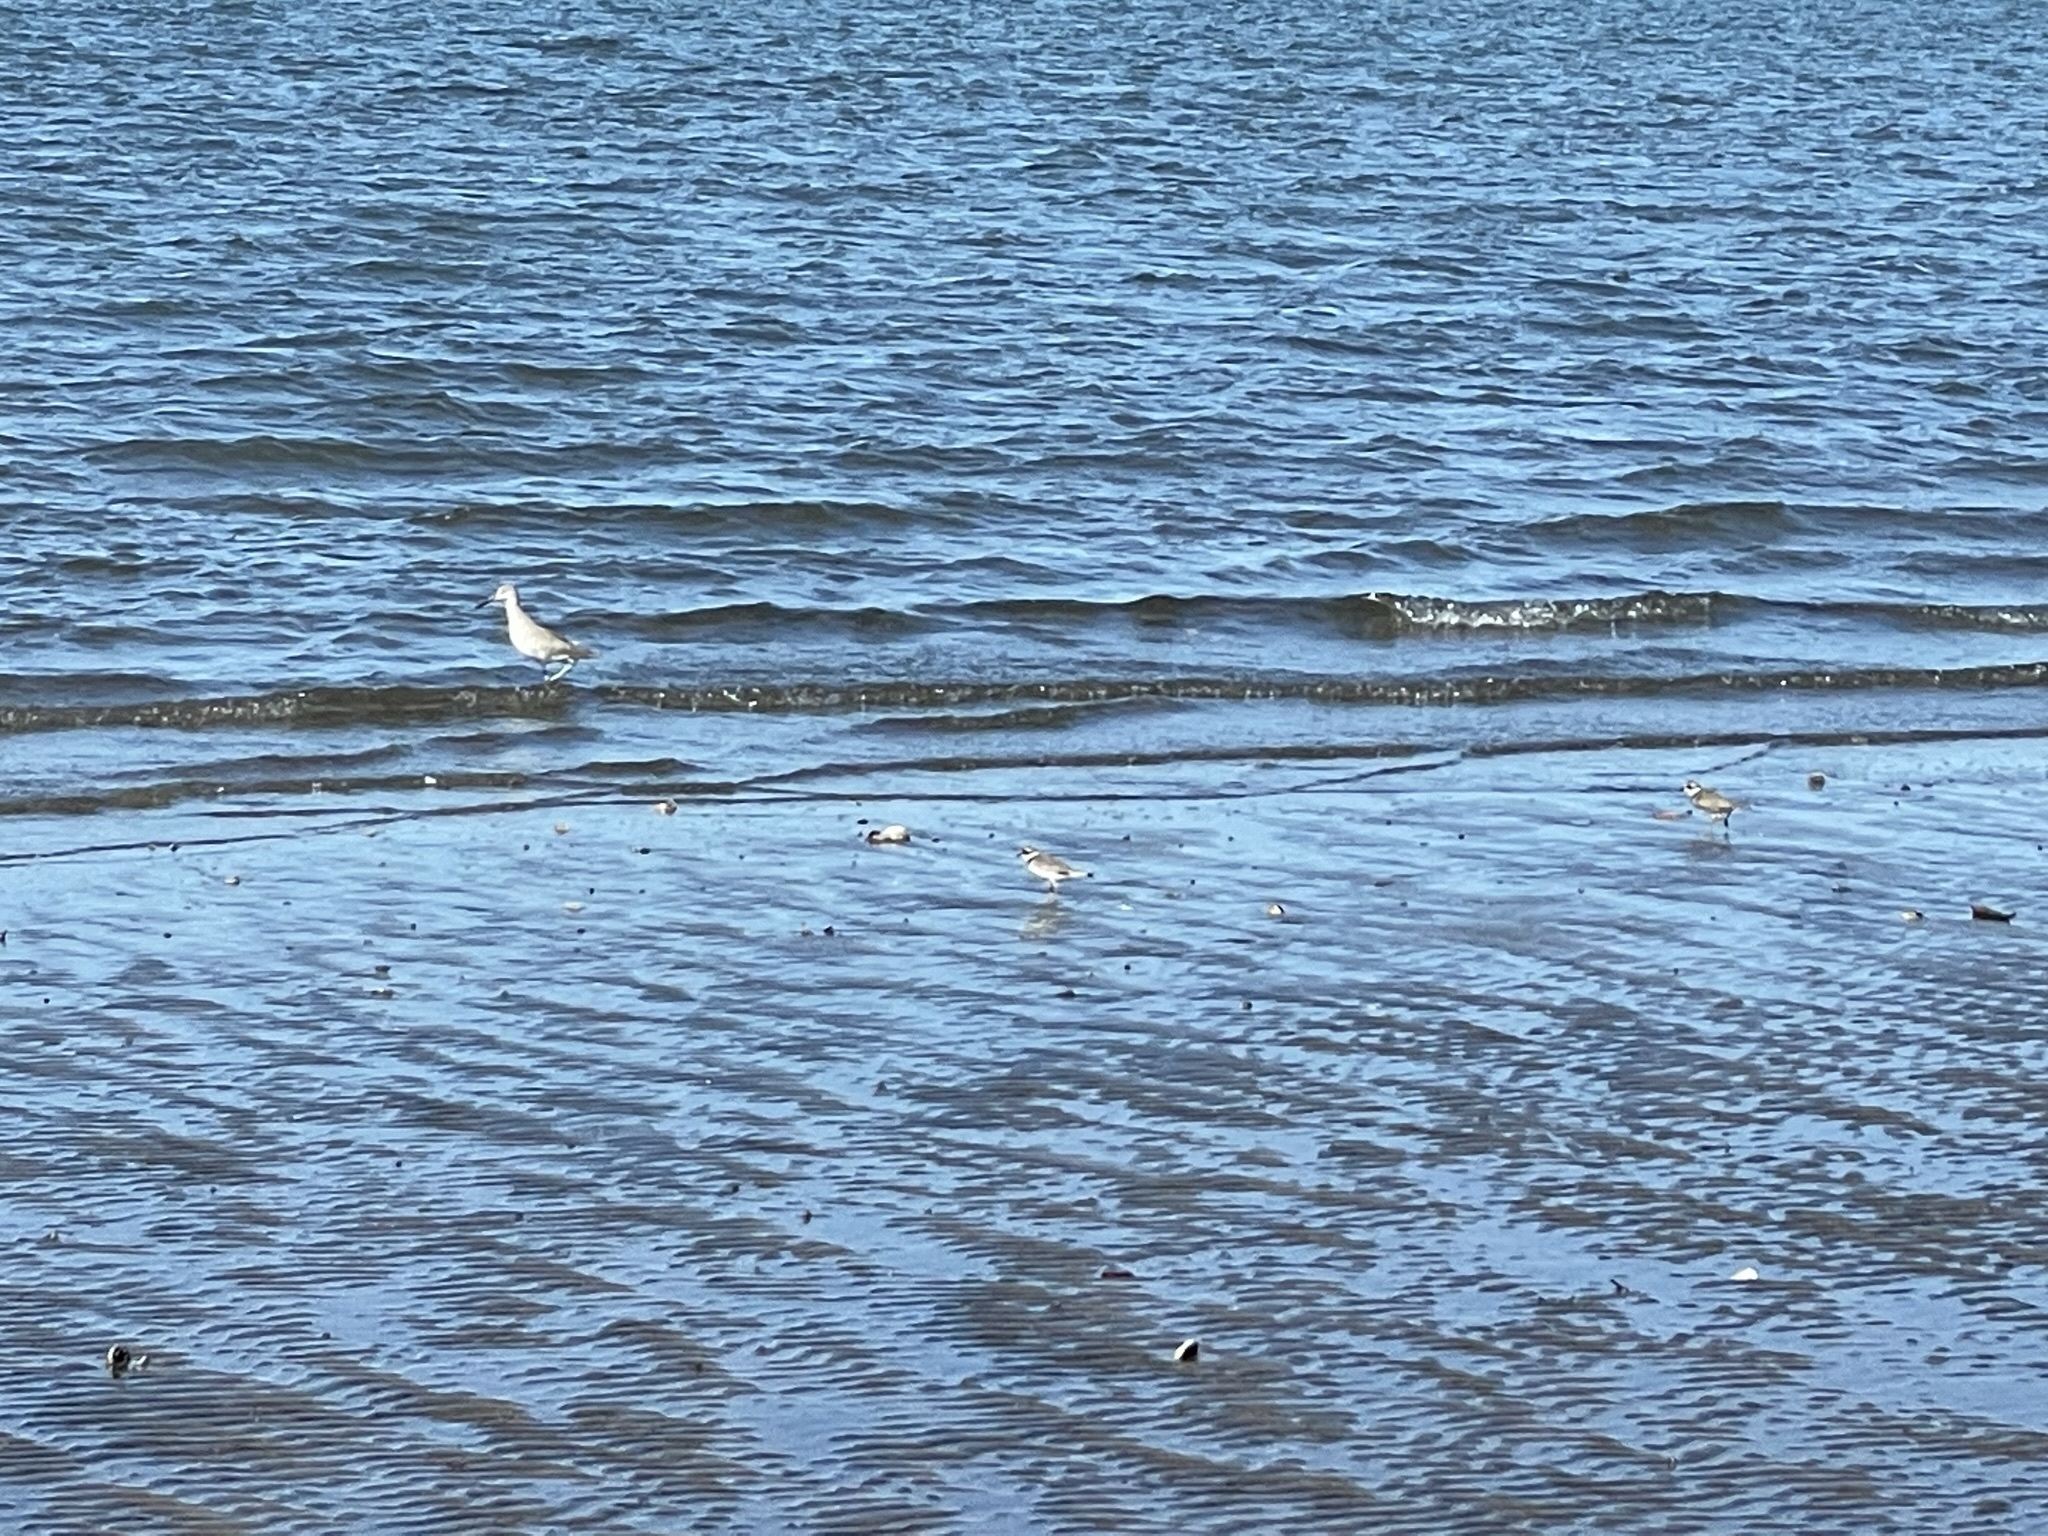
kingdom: Animalia
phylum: Chordata
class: Aves
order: Charadriiformes
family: Scolopacidae
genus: Tringa
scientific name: Tringa semipalmata
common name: Willet
